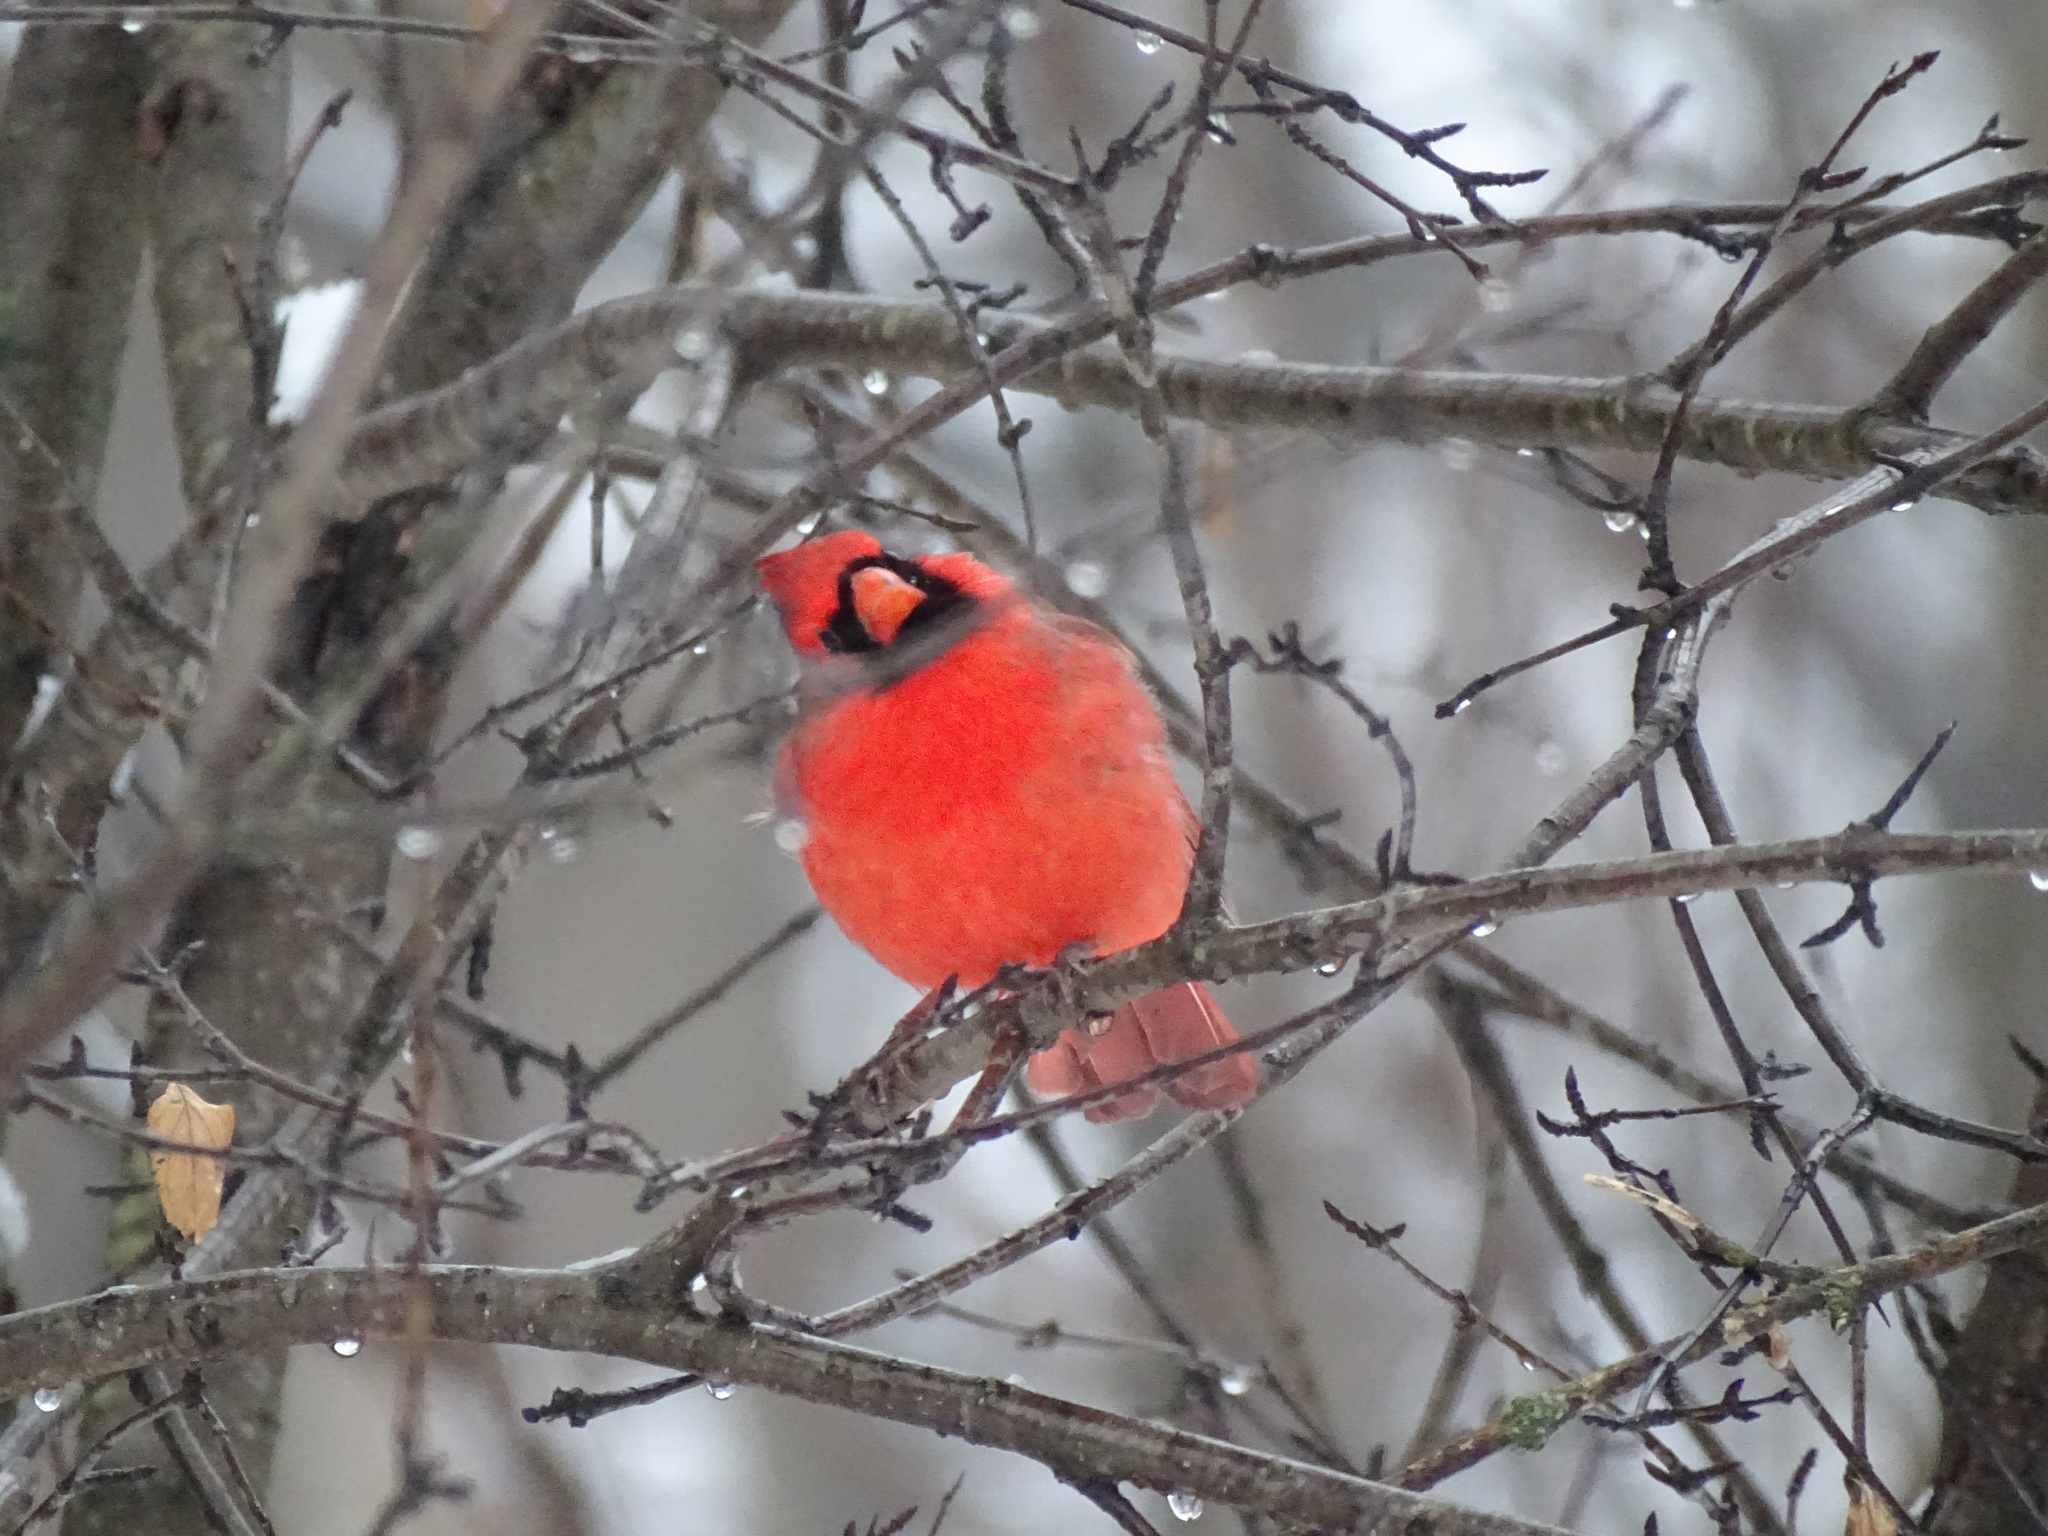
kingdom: Animalia
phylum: Chordata
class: Aves
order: Passeriformes
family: Cardinalidae
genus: Cardinalis
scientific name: Cardinalis cardinalis
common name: Northern cardinal
